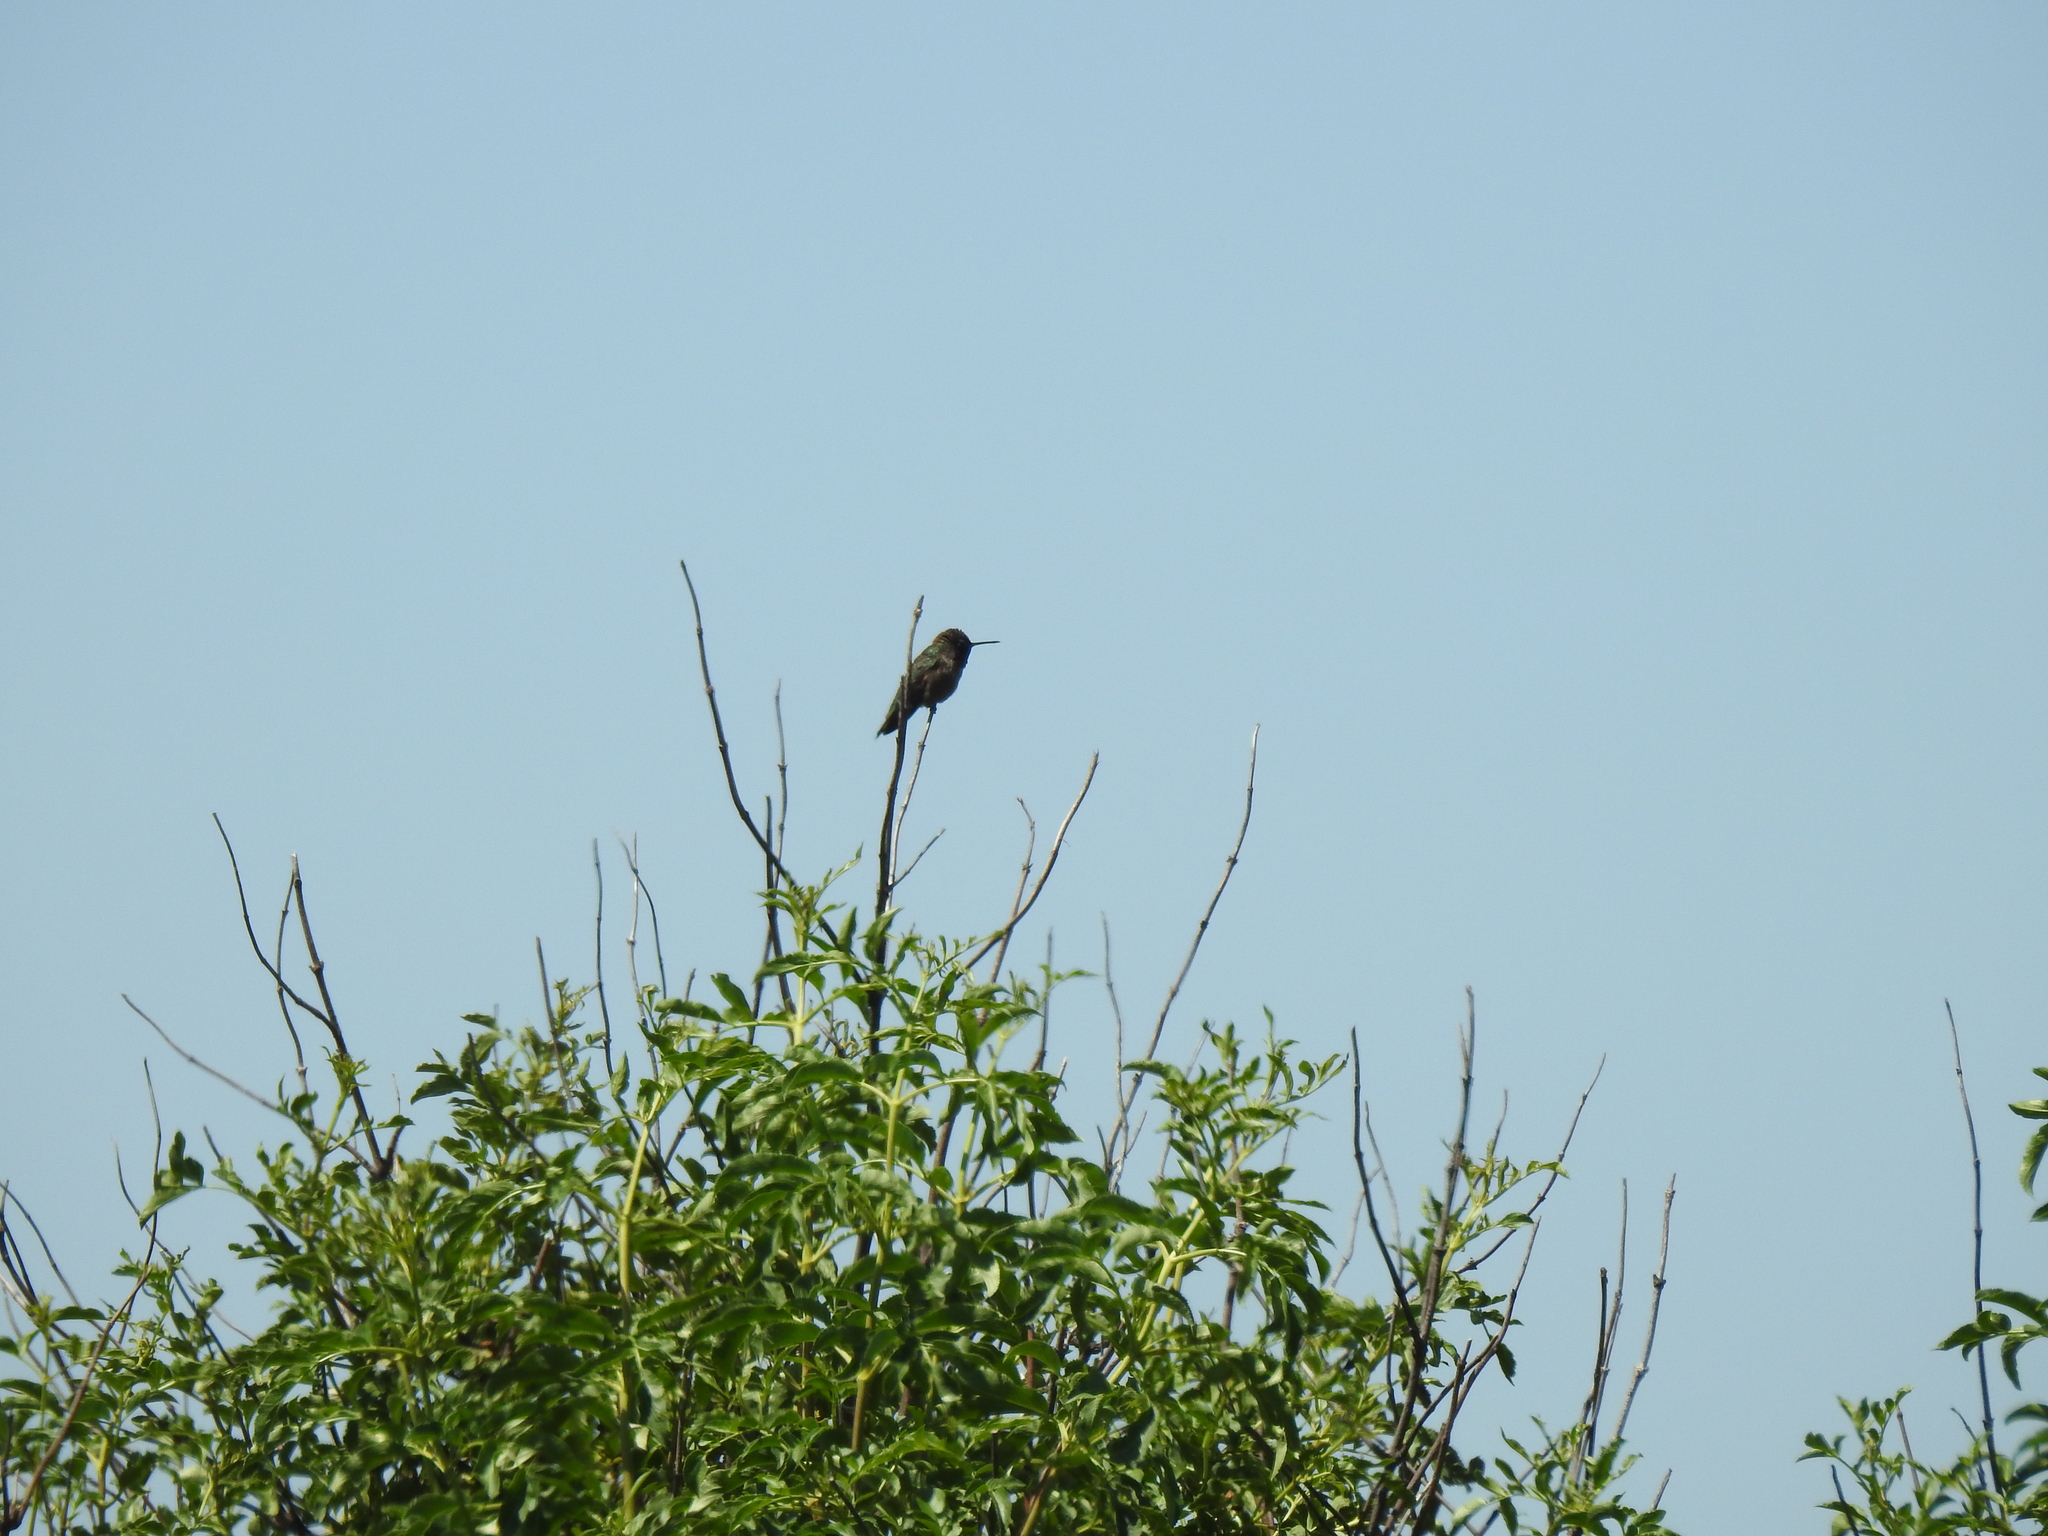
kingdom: Animalia
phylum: Chordata
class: Aves
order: Apodiformes
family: Trochilidae
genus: Calypte
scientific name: Calypte anna
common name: Anna's hummingbird
